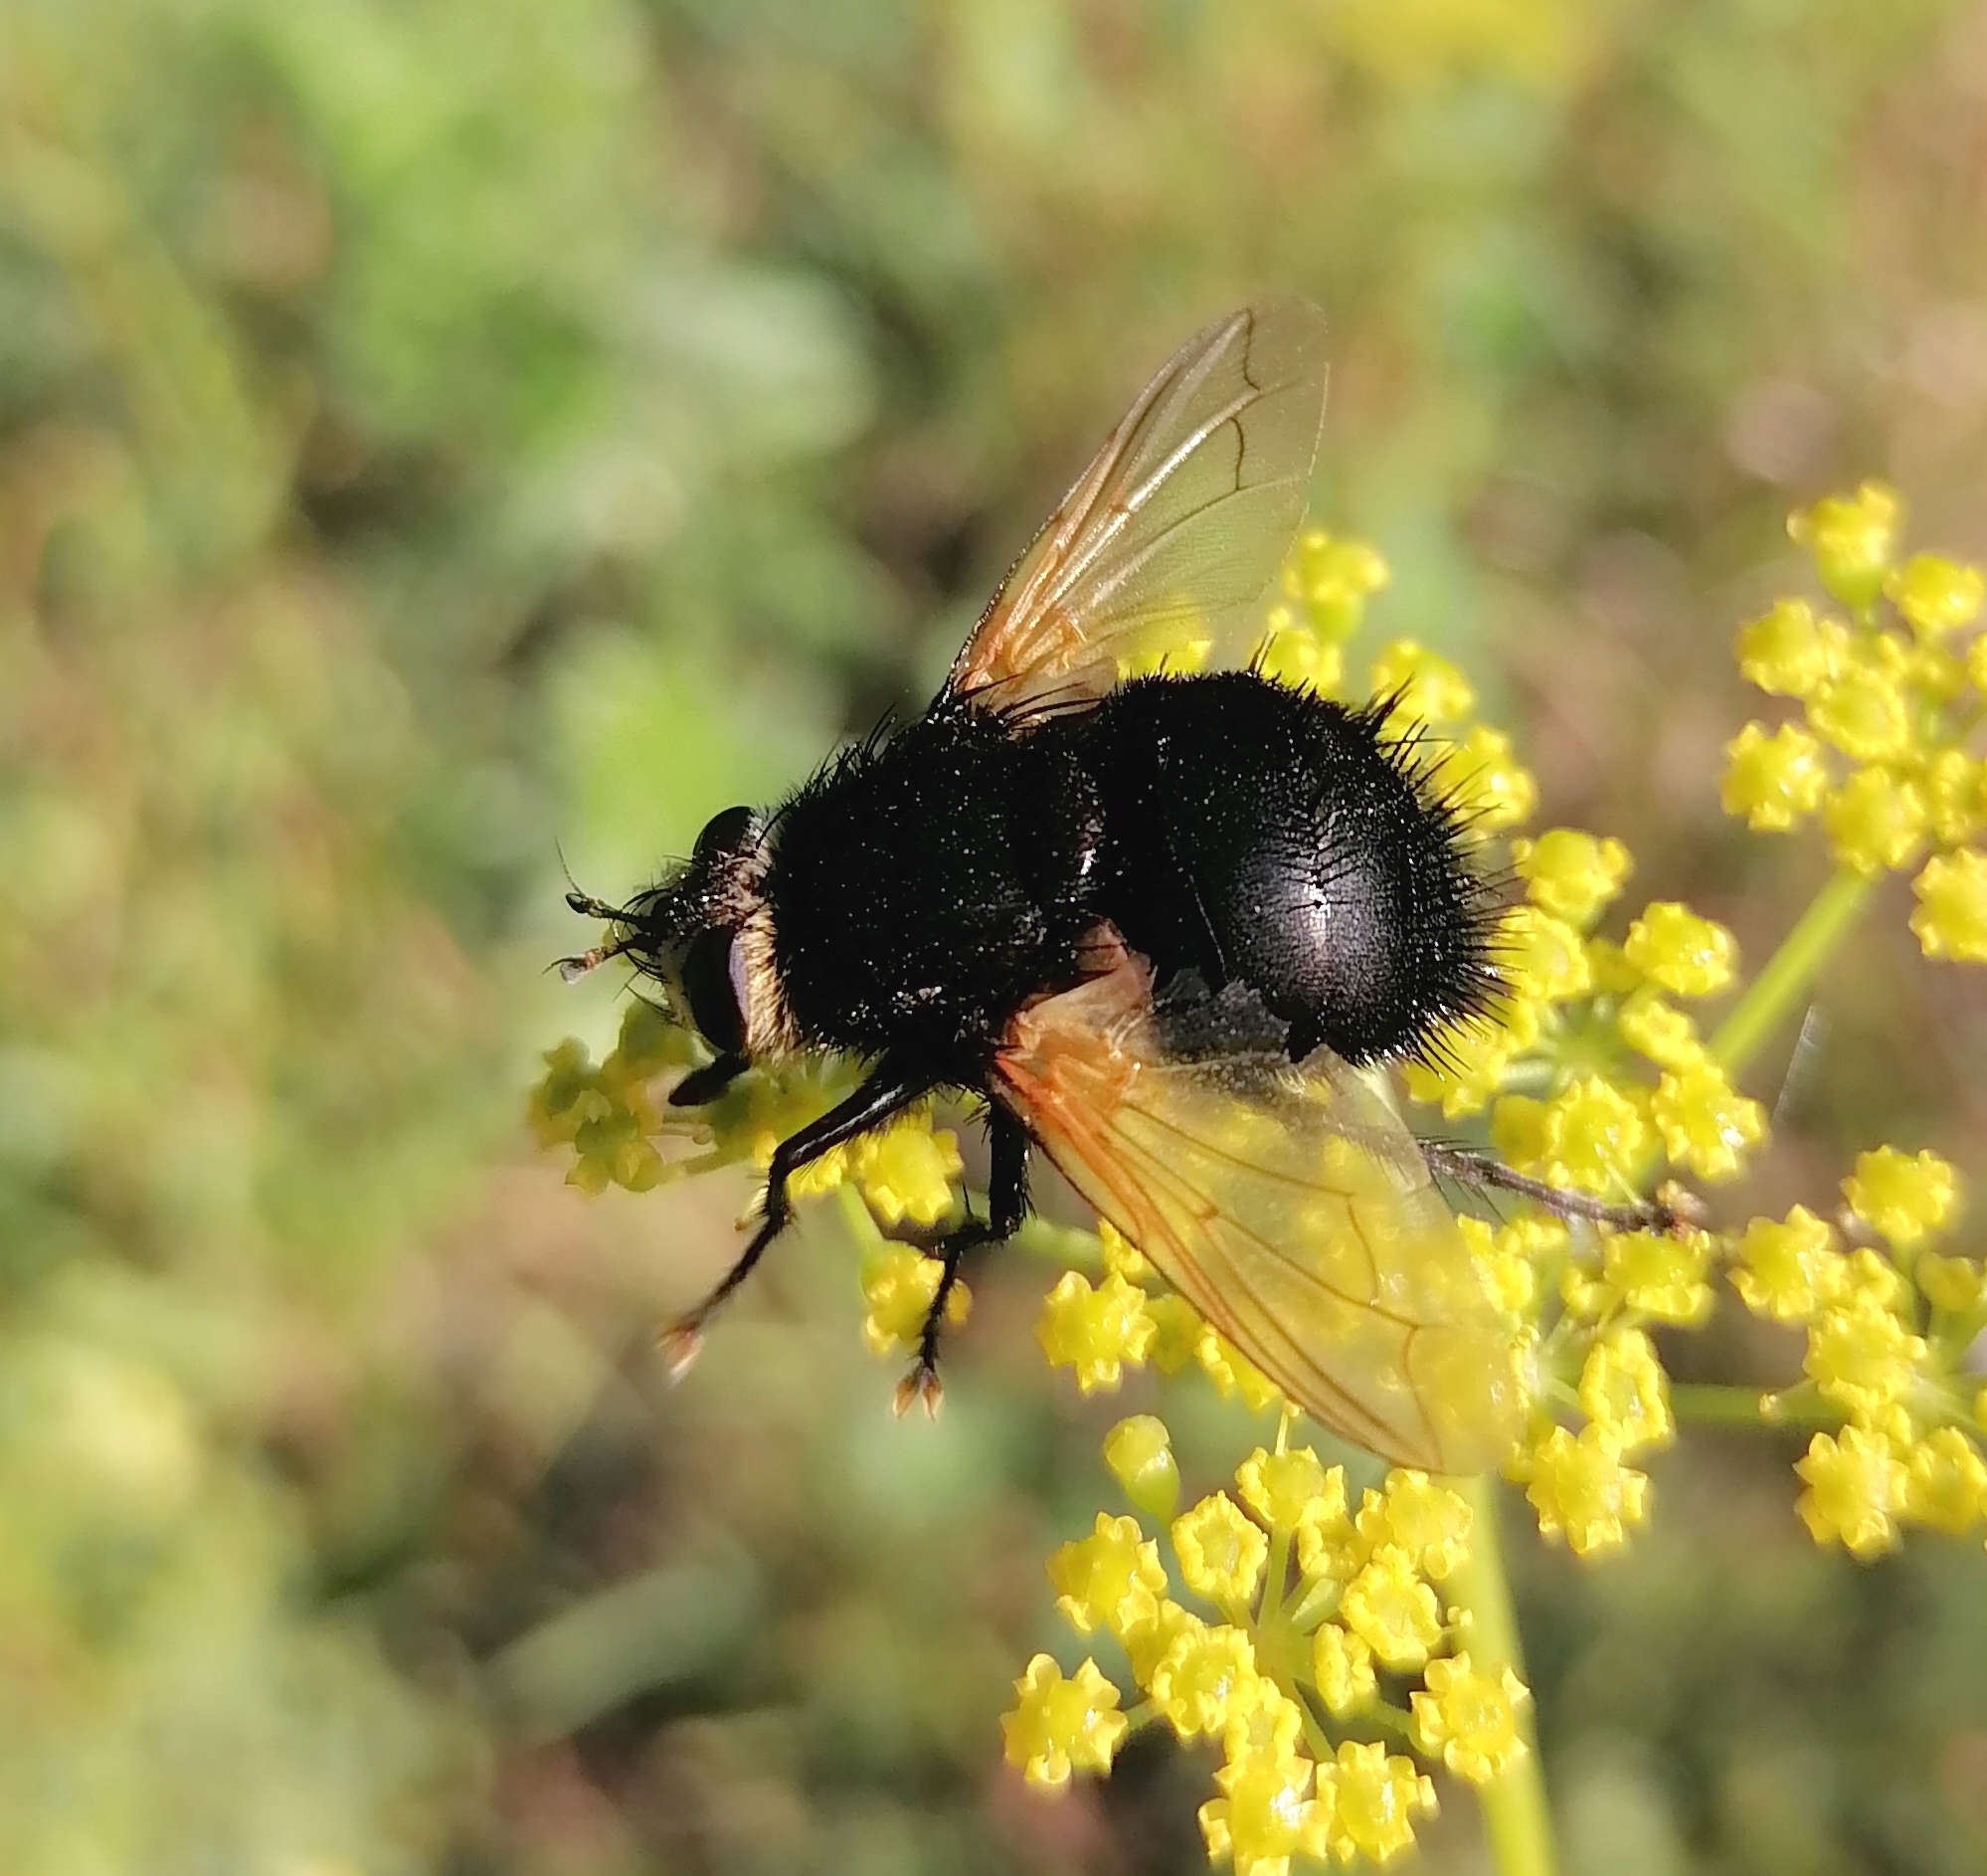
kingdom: Animalia
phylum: Arthropoda
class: Insecta
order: Diptera
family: Tachinidae
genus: Tachina
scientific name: Tachina grossa
